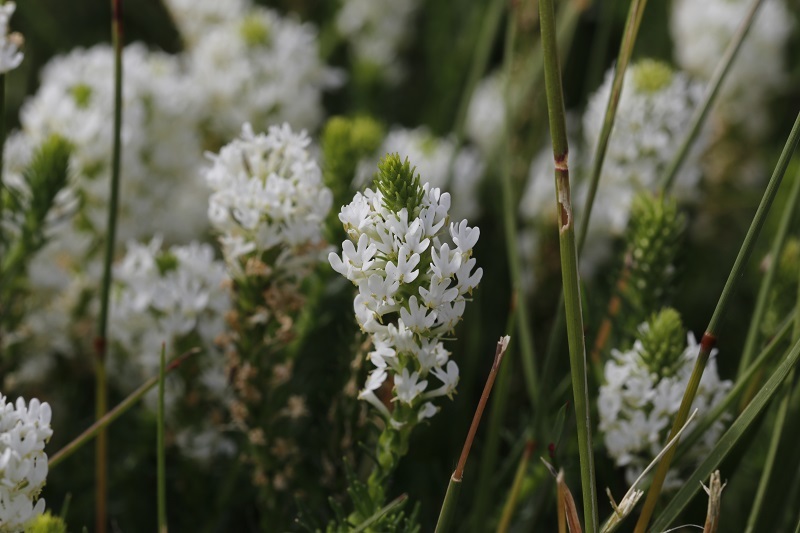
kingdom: Plantae
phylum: Tracheophyta
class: Magnoliopsida
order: Lamiales
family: Scrophulariaceae
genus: Dischisma
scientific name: Dischisma ciliatum
